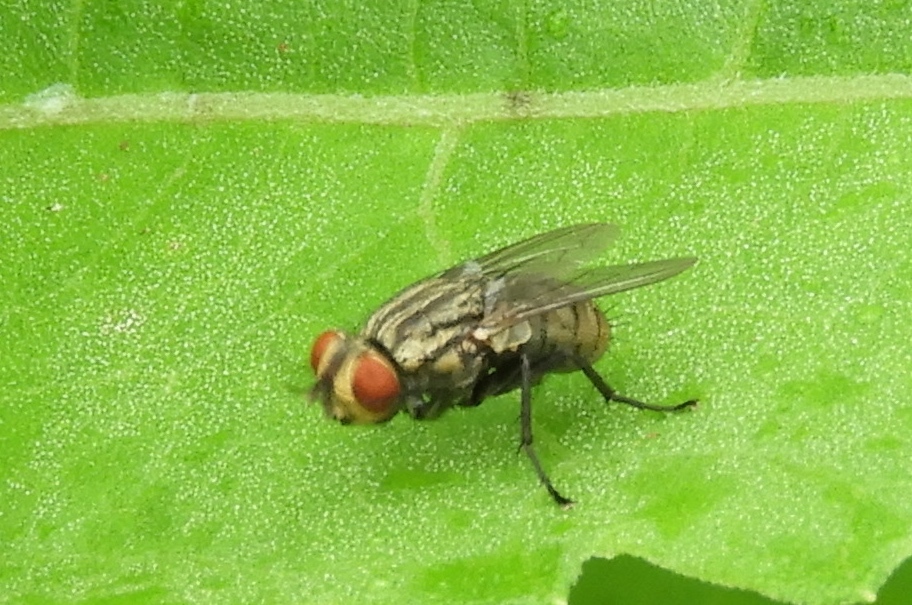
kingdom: Animalia
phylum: Arthropoda
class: Insecta
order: Diptera
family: Sarcophagidae
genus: Sarcophaga
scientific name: Sarcophaga
